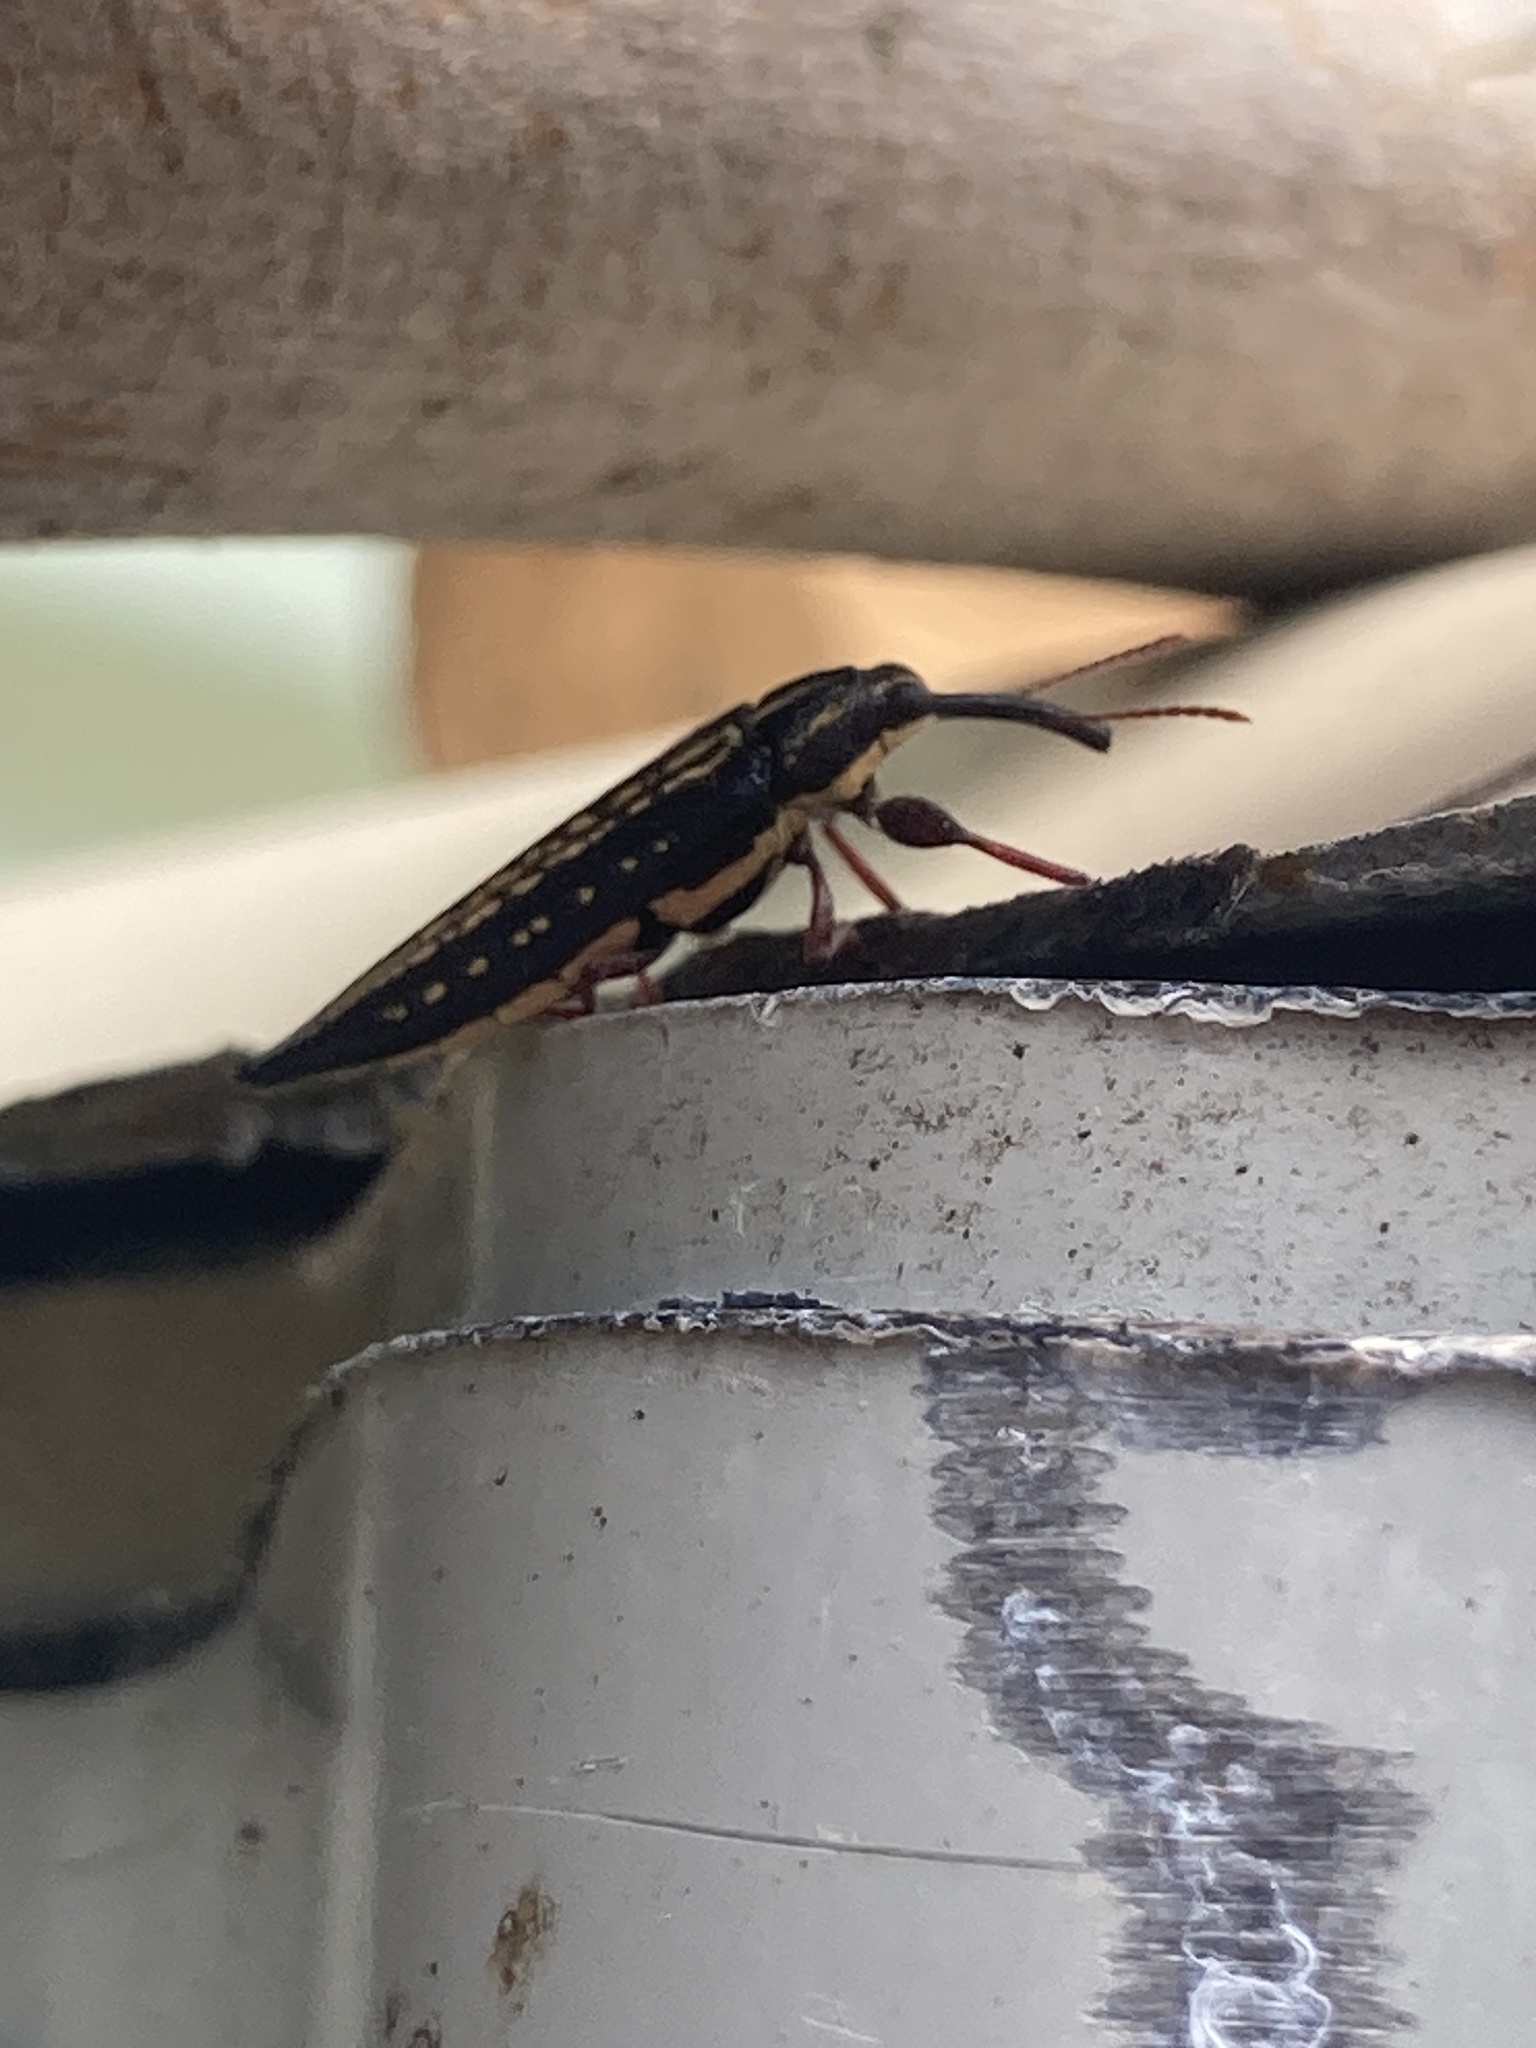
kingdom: Animalia
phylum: Arthropoda
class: Insecta
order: Coleoptera
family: Belidae
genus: Rhinotia
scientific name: Rhinotia lineata
